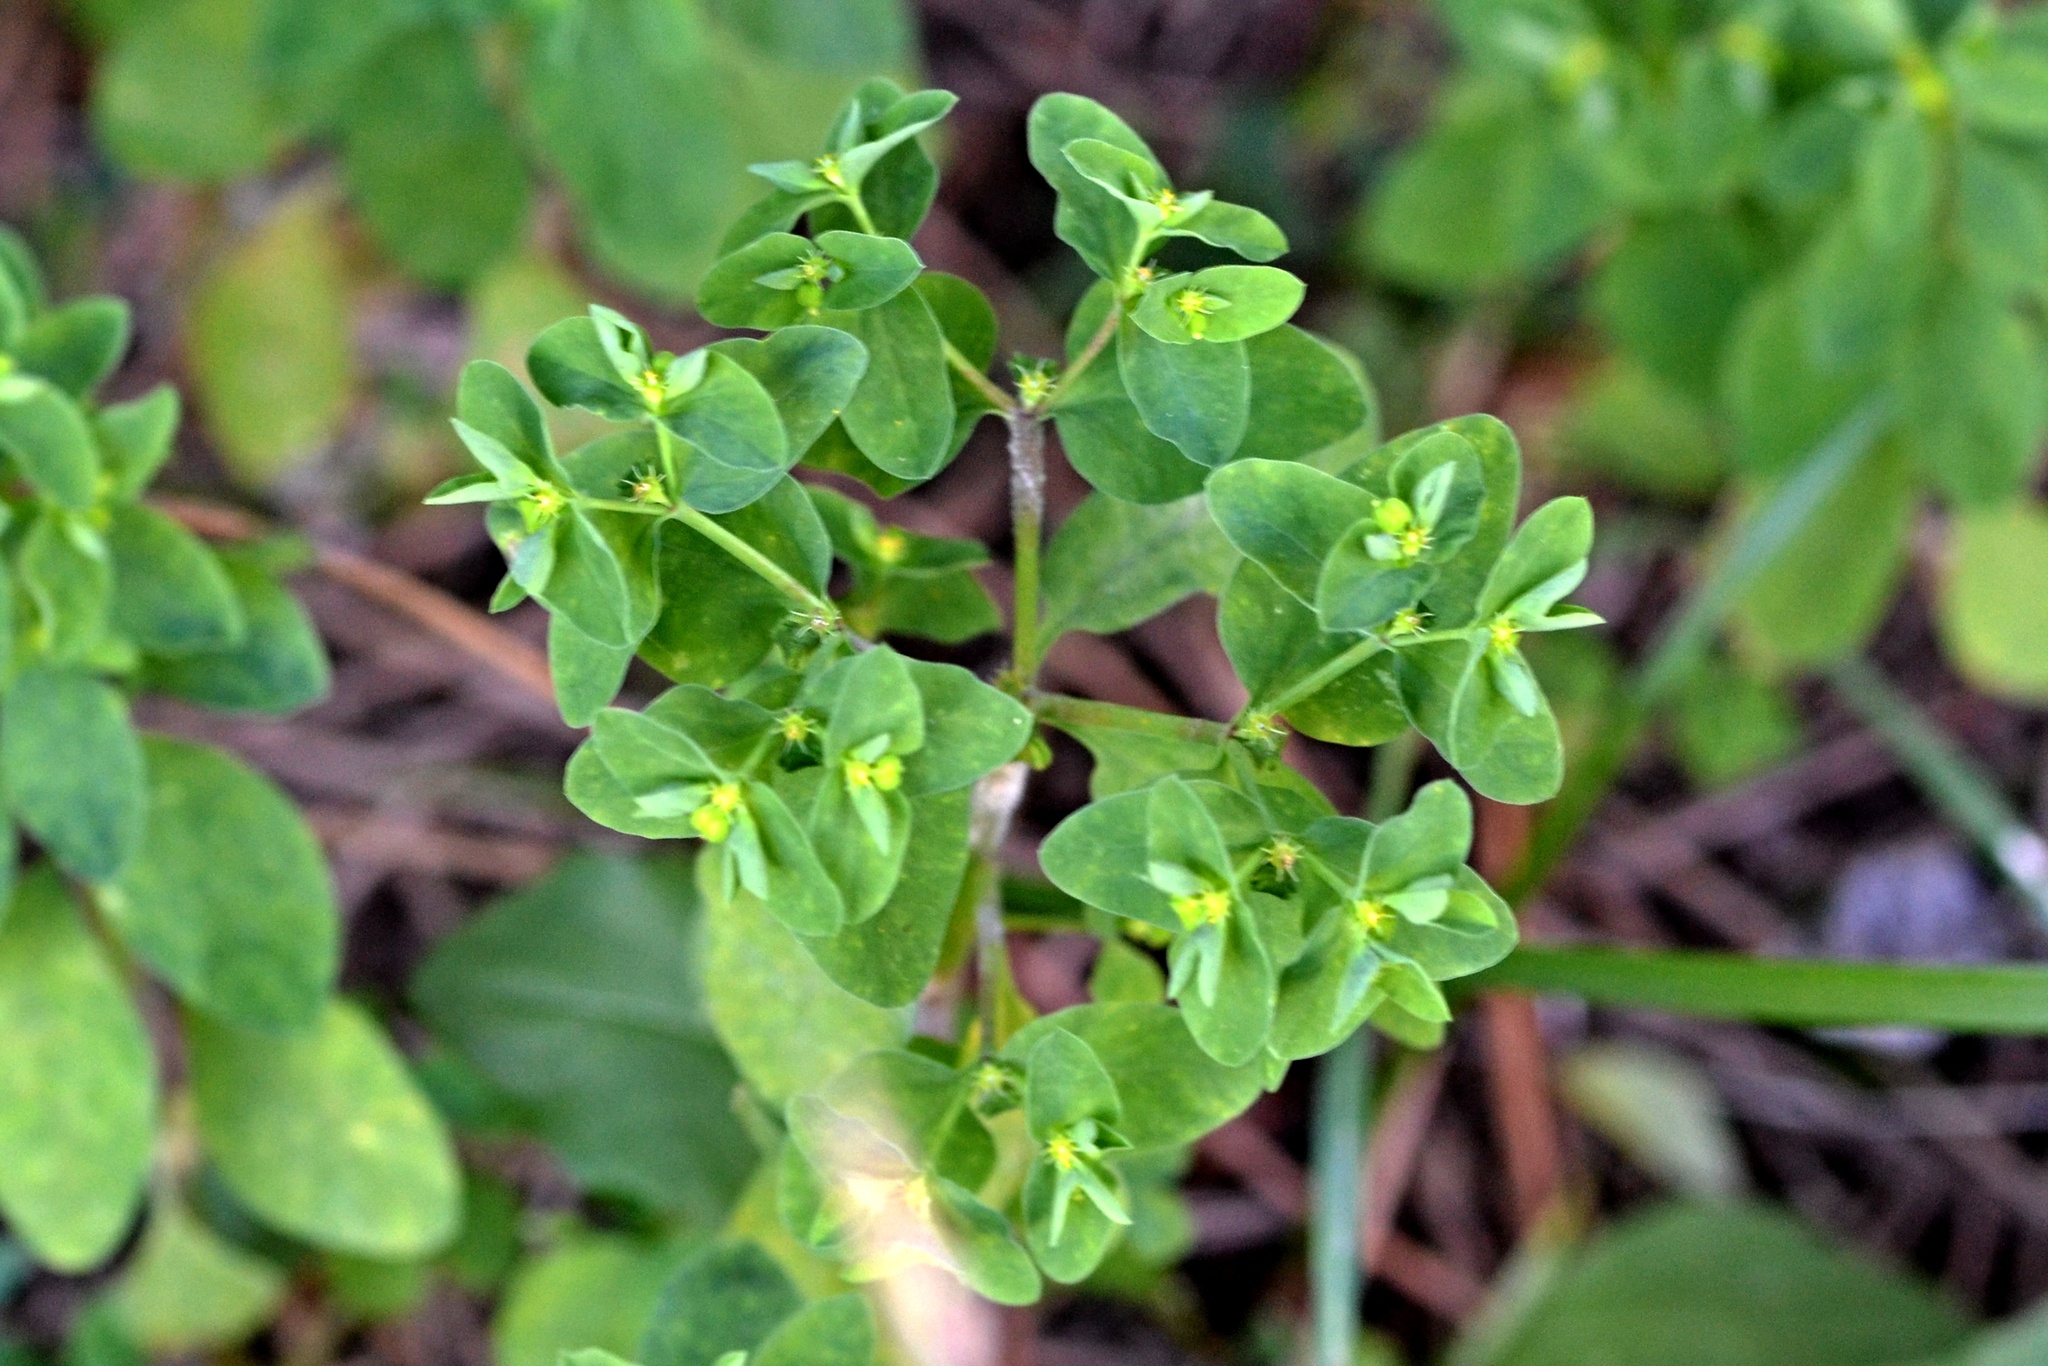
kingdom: Plantae
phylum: Tracheophyta
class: Magnoliopsida
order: Malpighiales
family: Euphorbiaceae
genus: Euphorbia
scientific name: Euphorbia peplus
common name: Petty spurge
